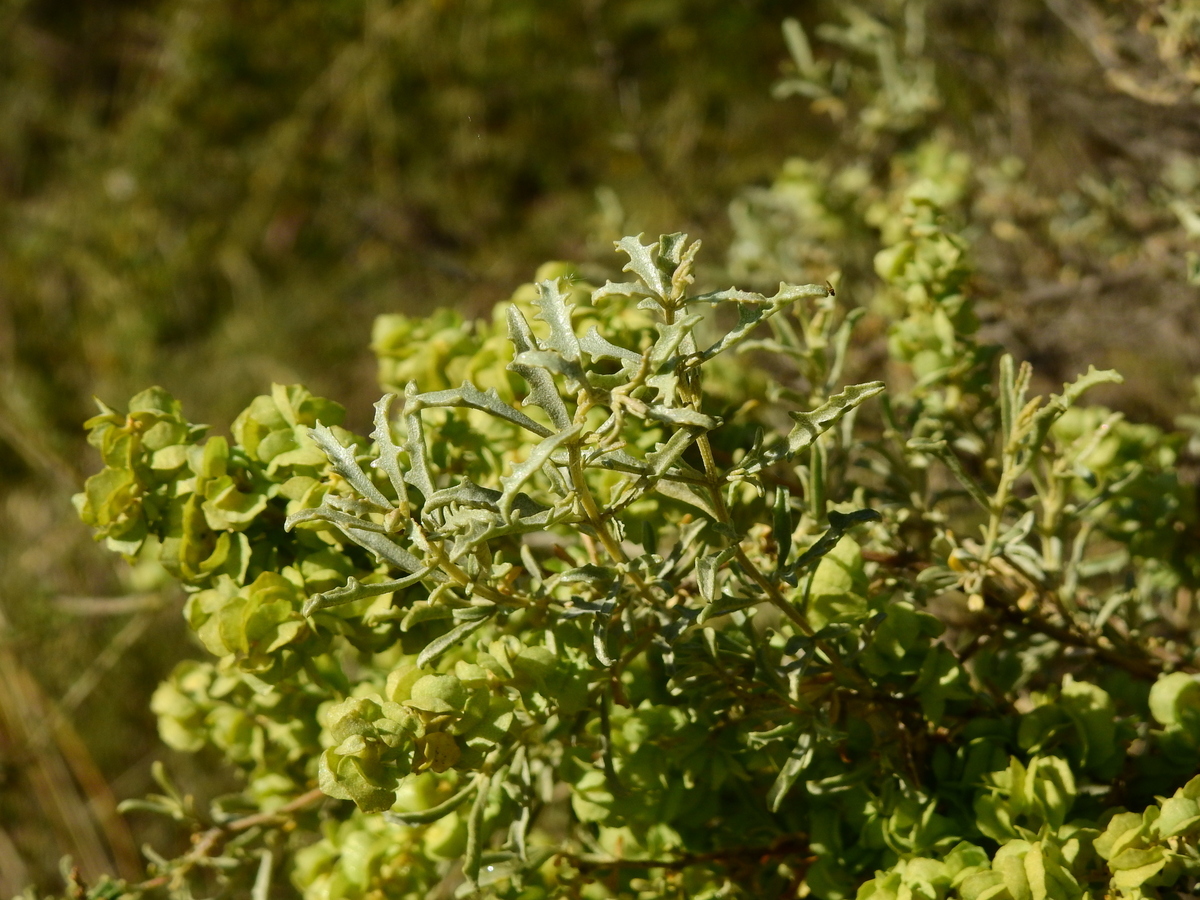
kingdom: Plantae
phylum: Tracheophyta
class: Magnoliopsida
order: Caryophyllales
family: Amaranthaceae
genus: Atriplex
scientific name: Atriplex lampa
